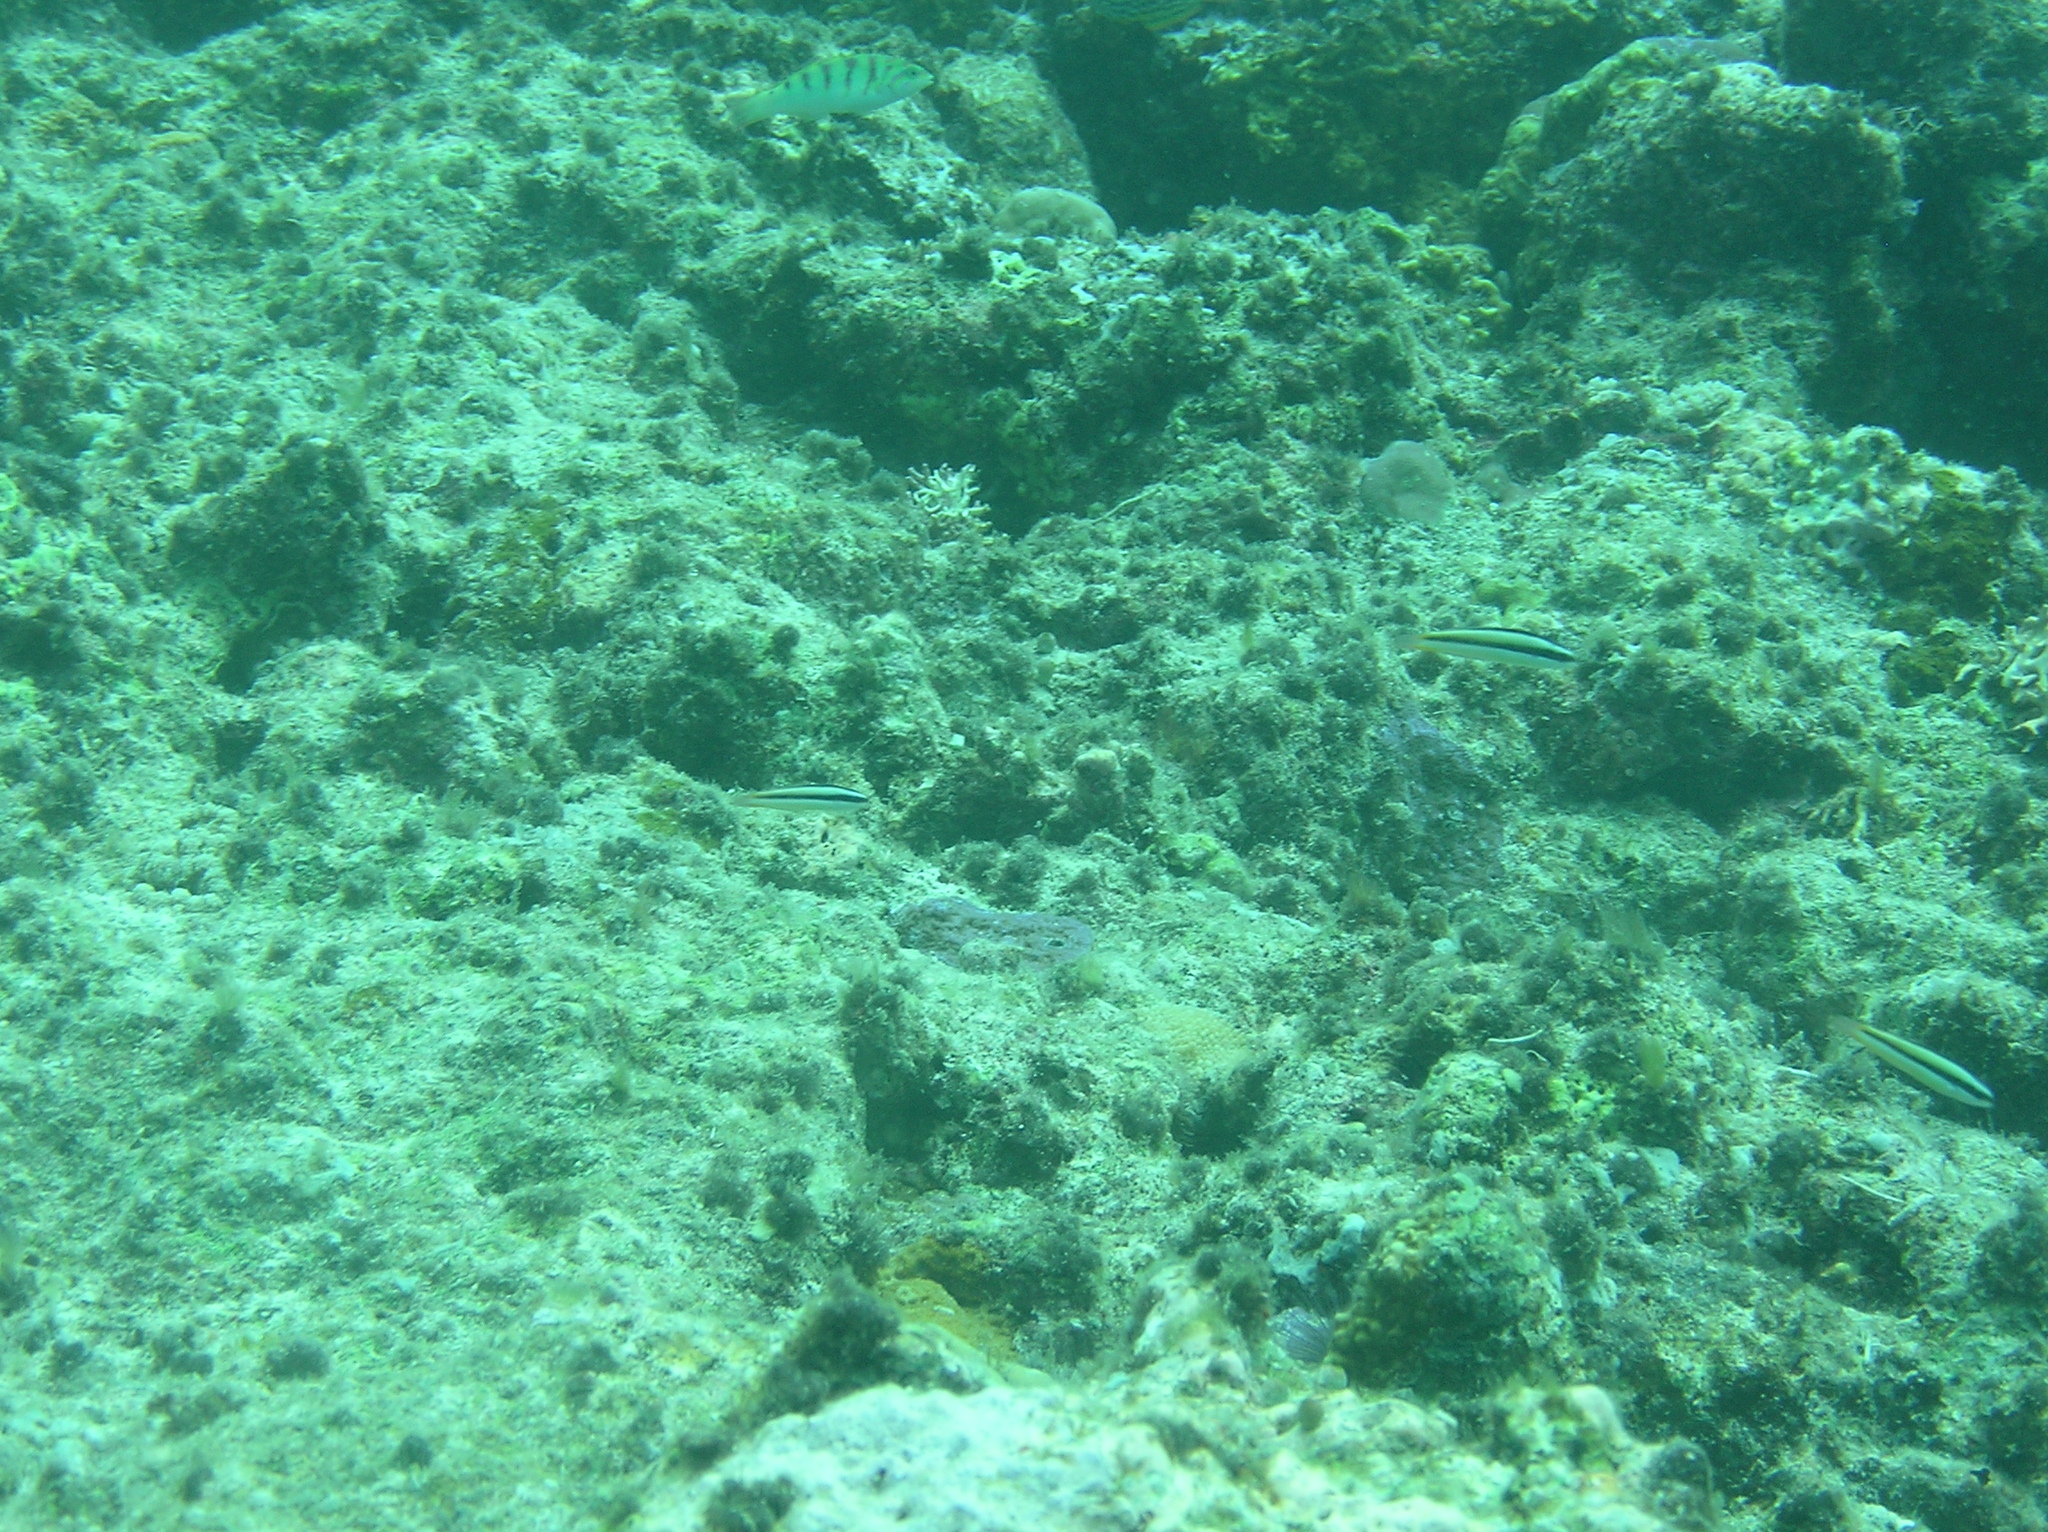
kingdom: Animalia
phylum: Chordata
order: Perciformes
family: Labridae
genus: Thalassoma
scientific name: Thalassoma amblycephalum
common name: Bluehead wrasse
